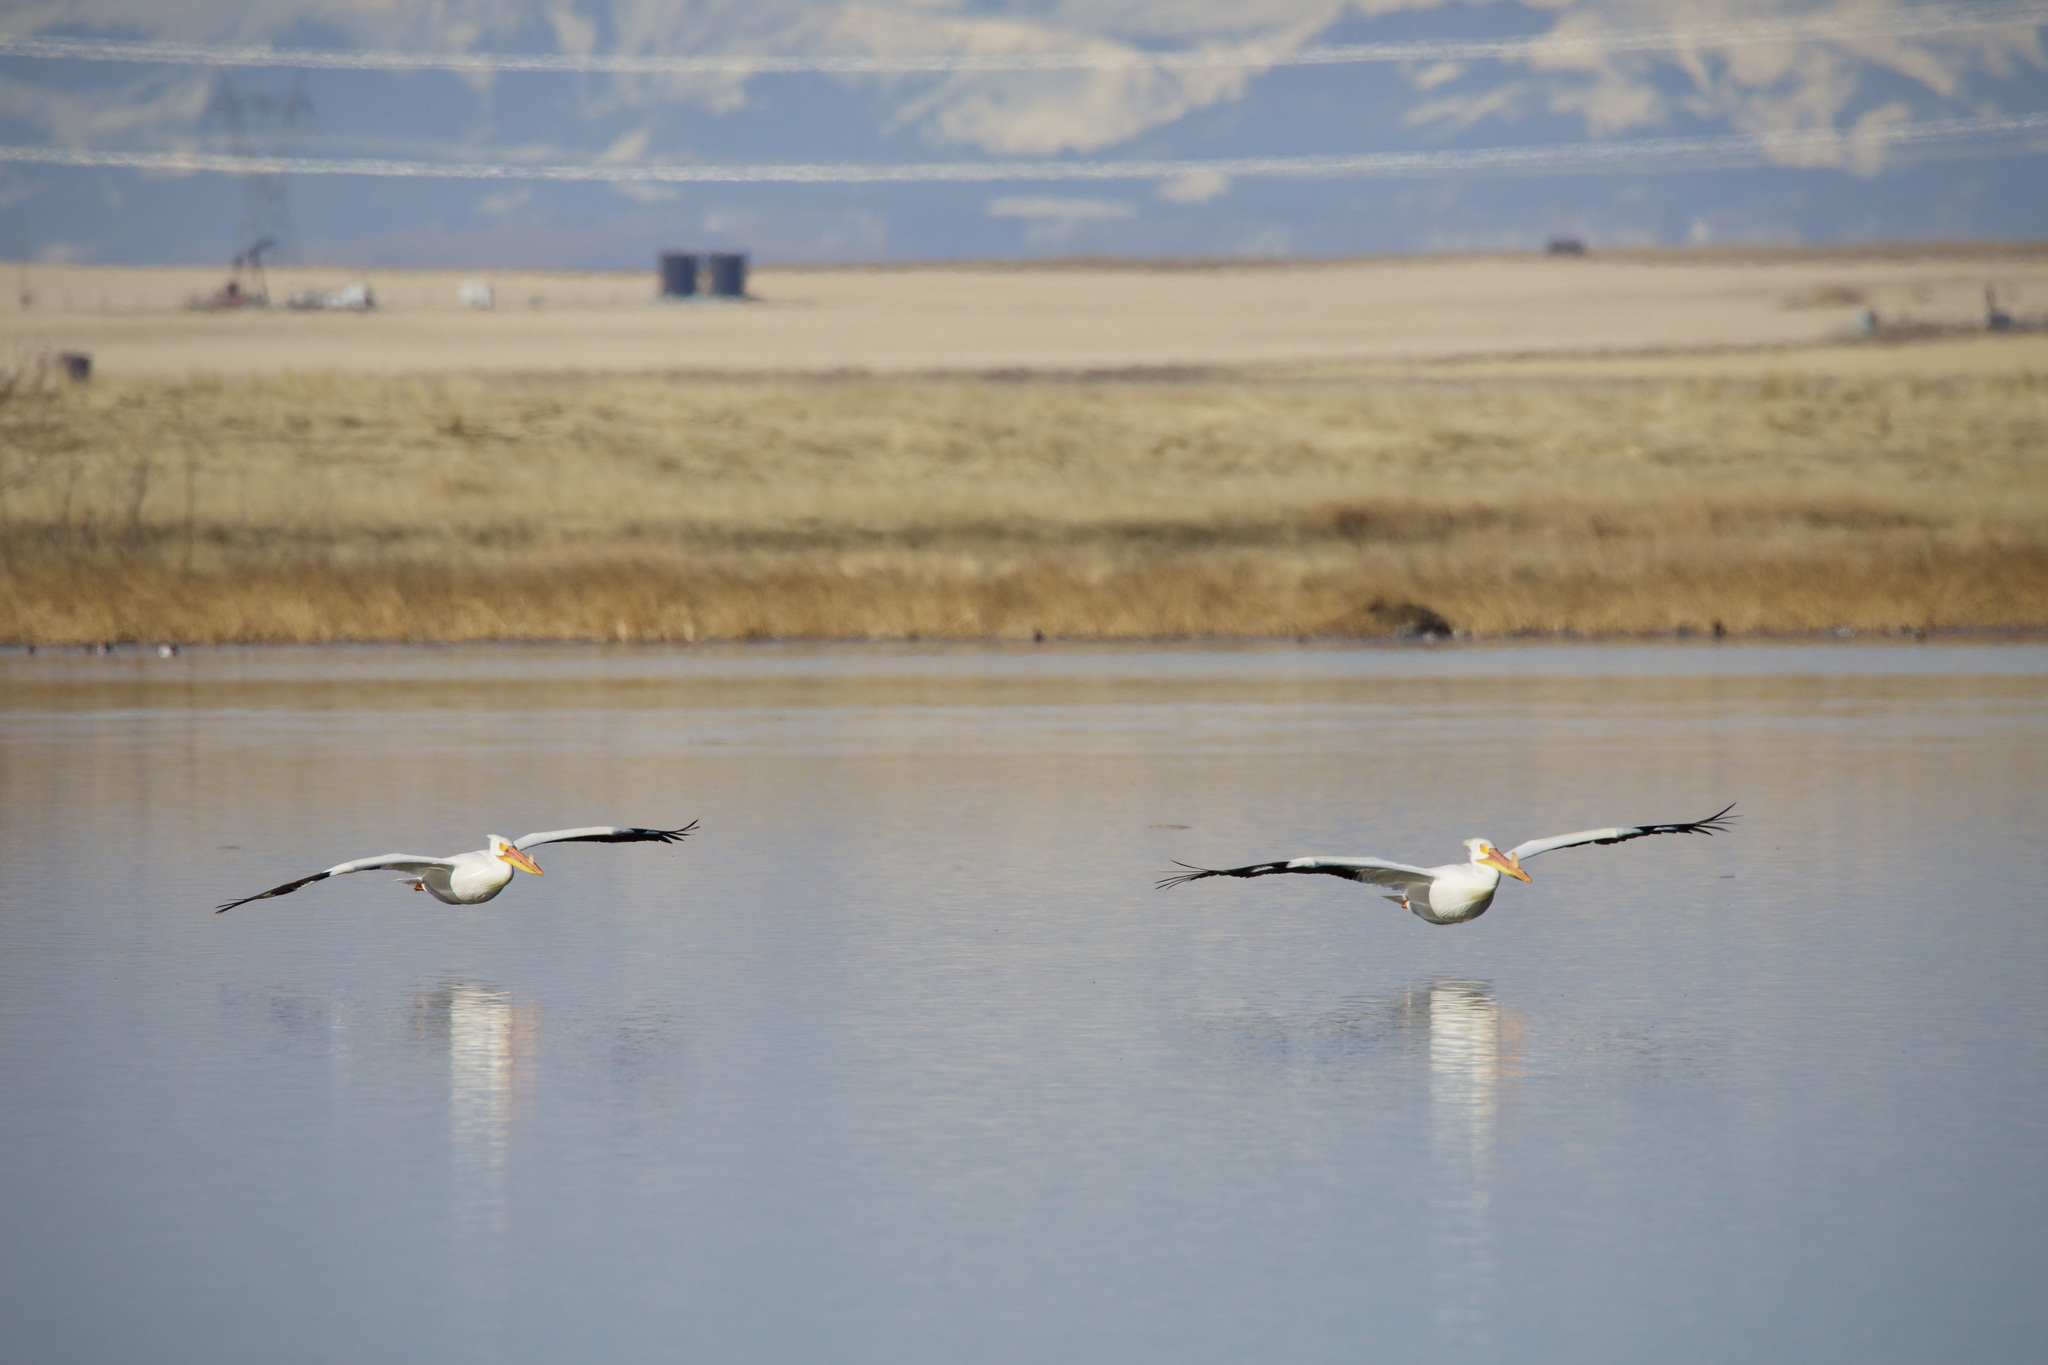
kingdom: Animalia
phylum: Chordata
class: Aves
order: Pelecaniformes
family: Pelecanidae
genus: Pelecanus
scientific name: Pelecanus erythrorhynchos
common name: American white pelican
